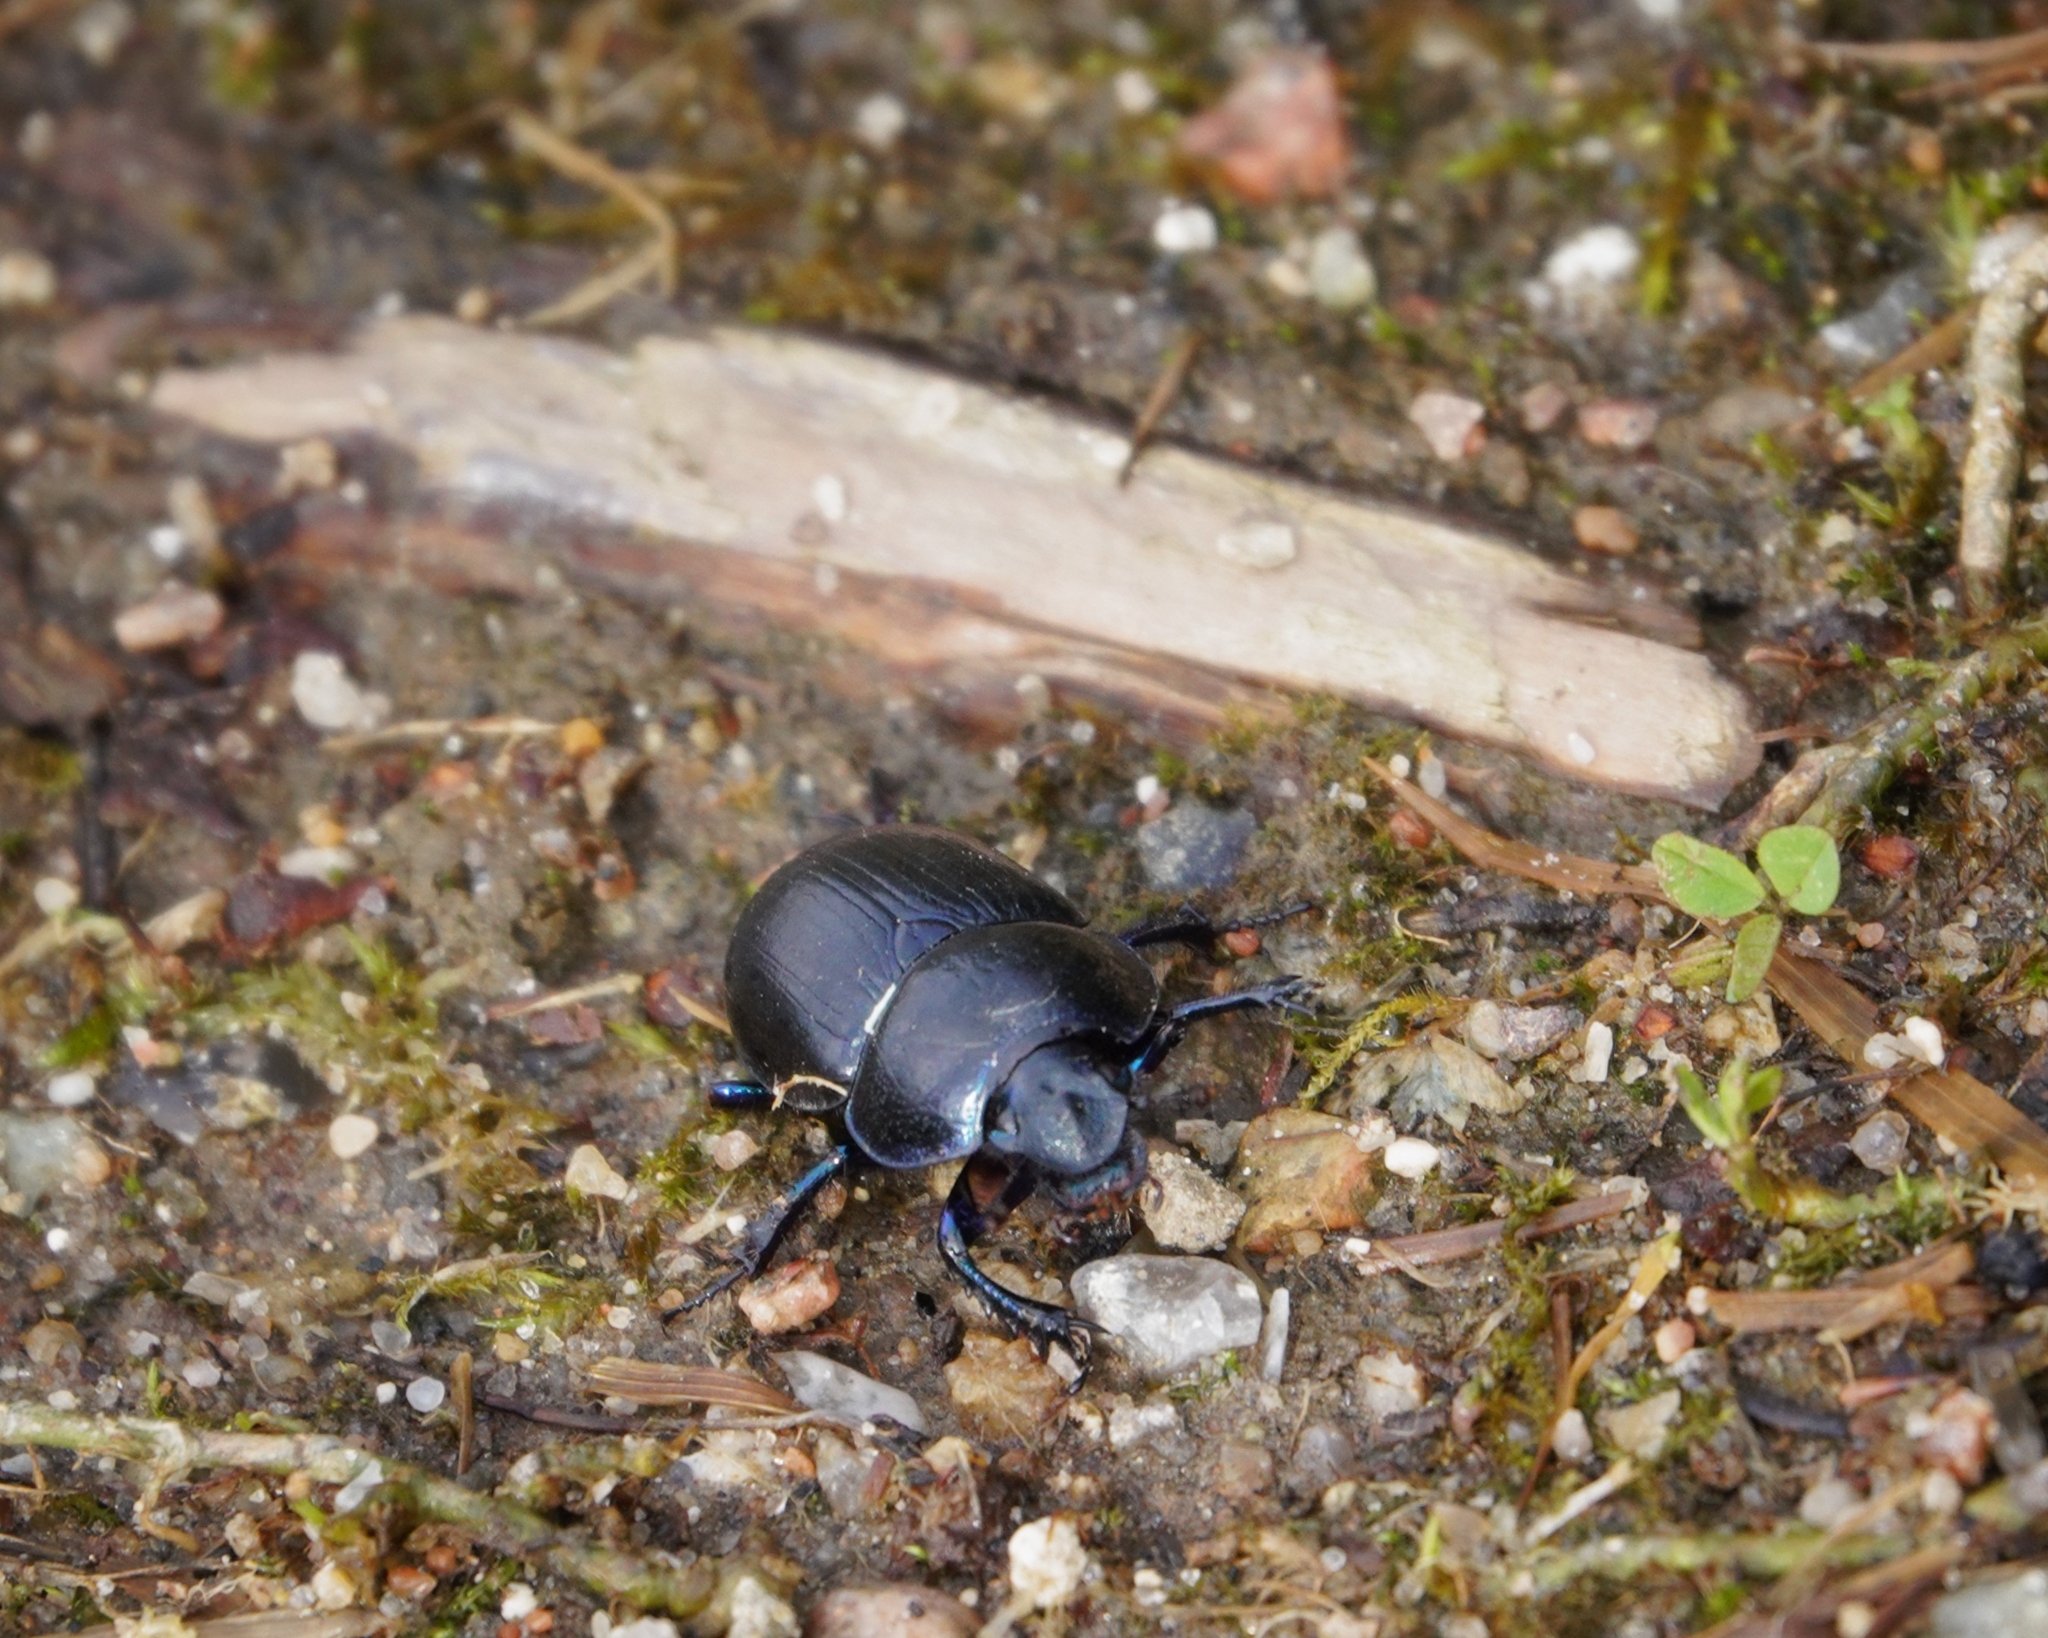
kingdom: Animalia
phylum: Arthropoda
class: Insecta
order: Coleoptera
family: Geotrupidae
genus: Anoplotrupes
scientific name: Anoplotrupes stercorosus
